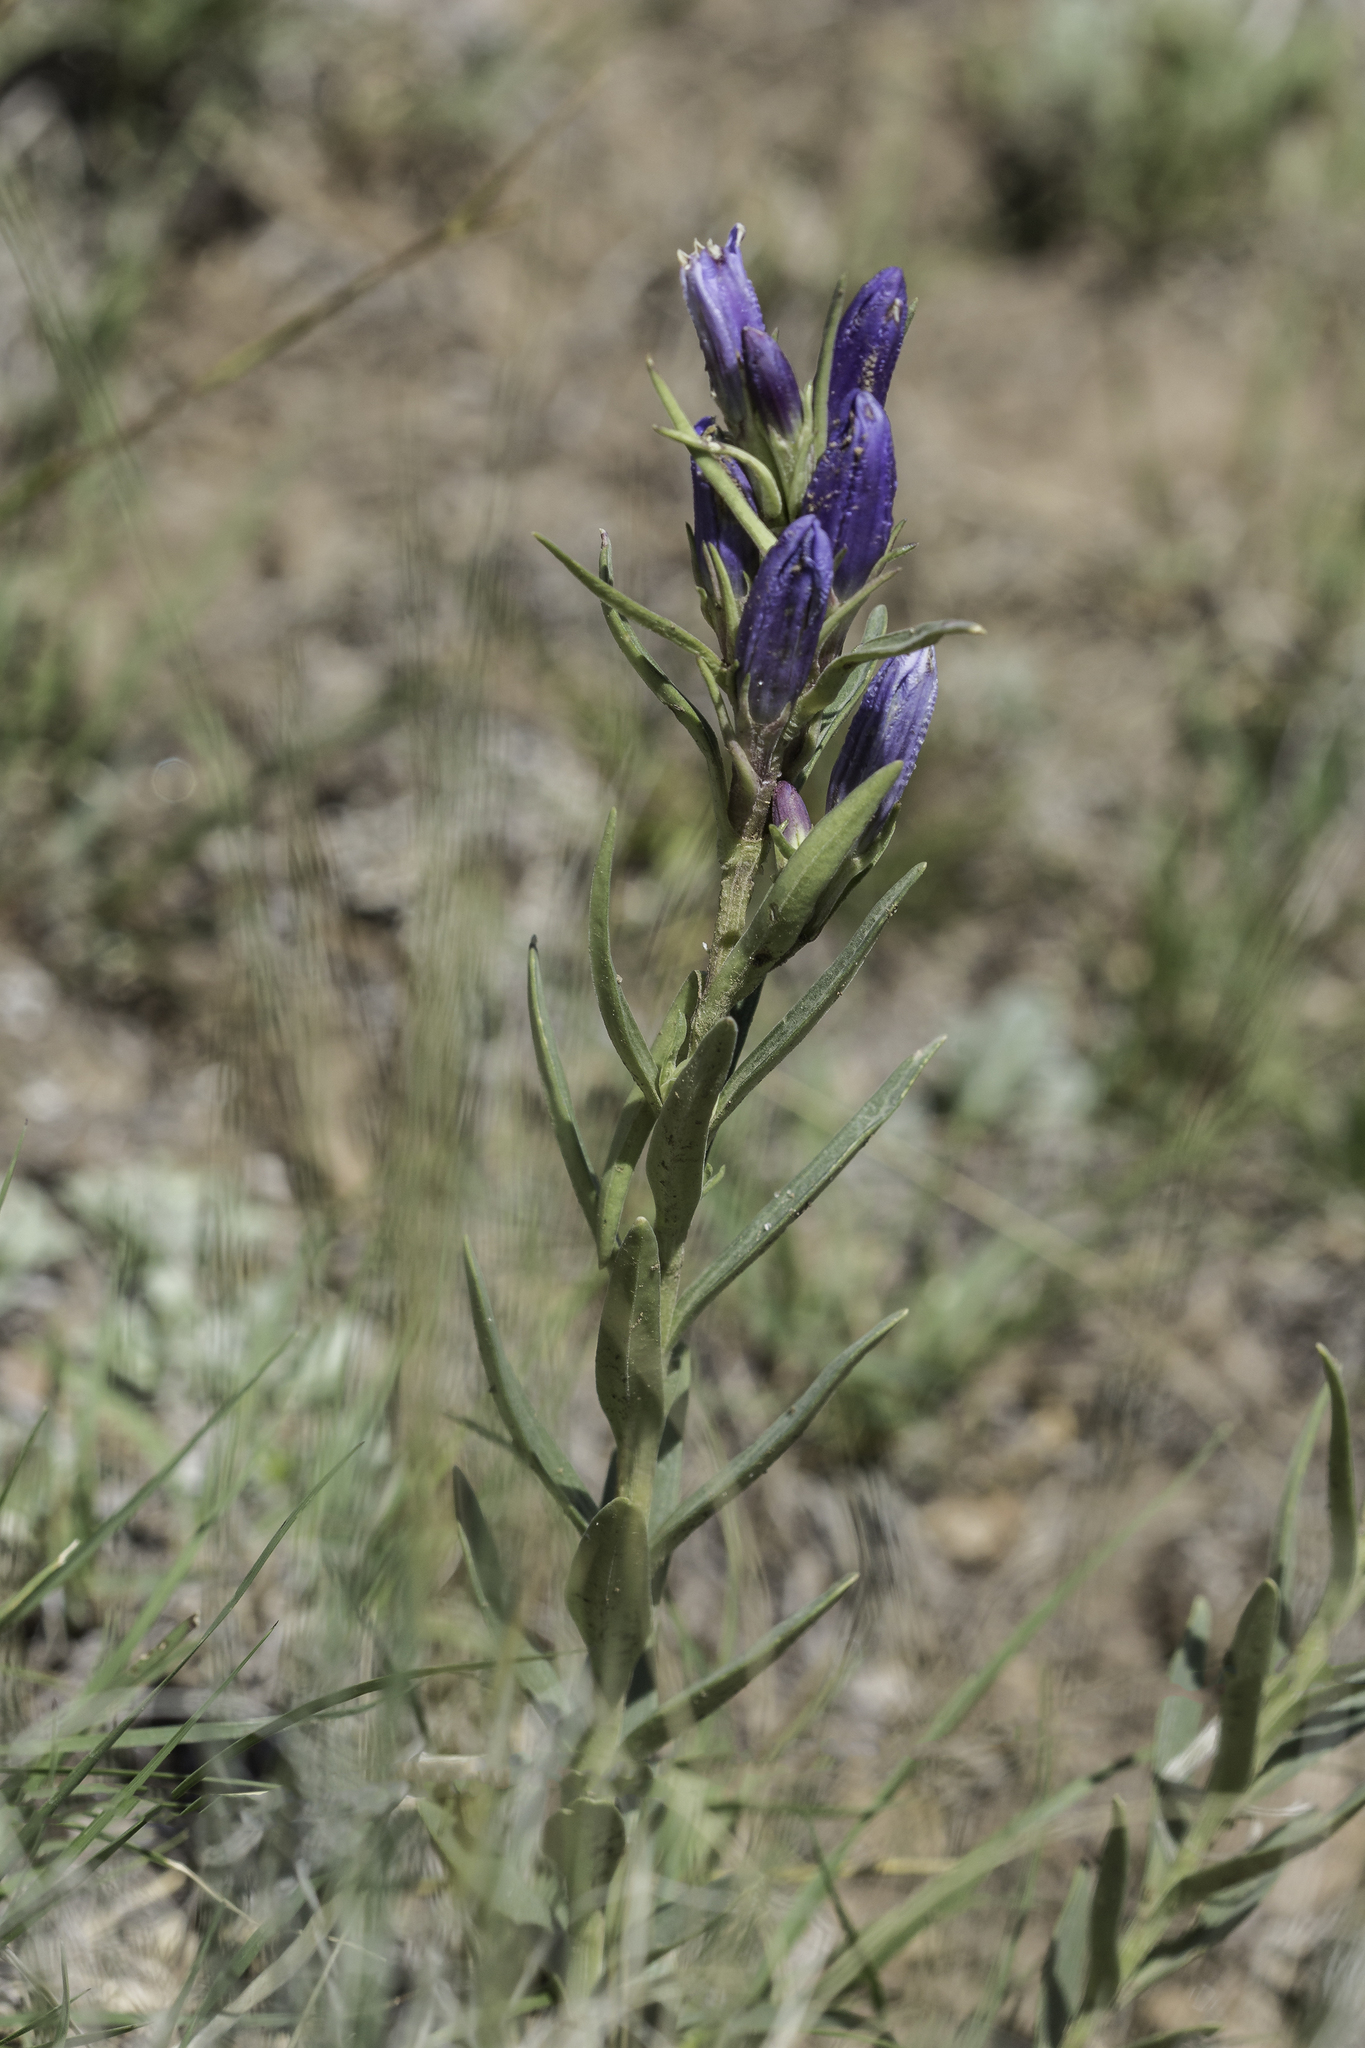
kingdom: Plantae
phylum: Tracheophyta
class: Magnoliopsida
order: Gentianales
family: Gentianaceae
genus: Gentiana
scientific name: Gentiana affinis
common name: Rocky mountain gentian
